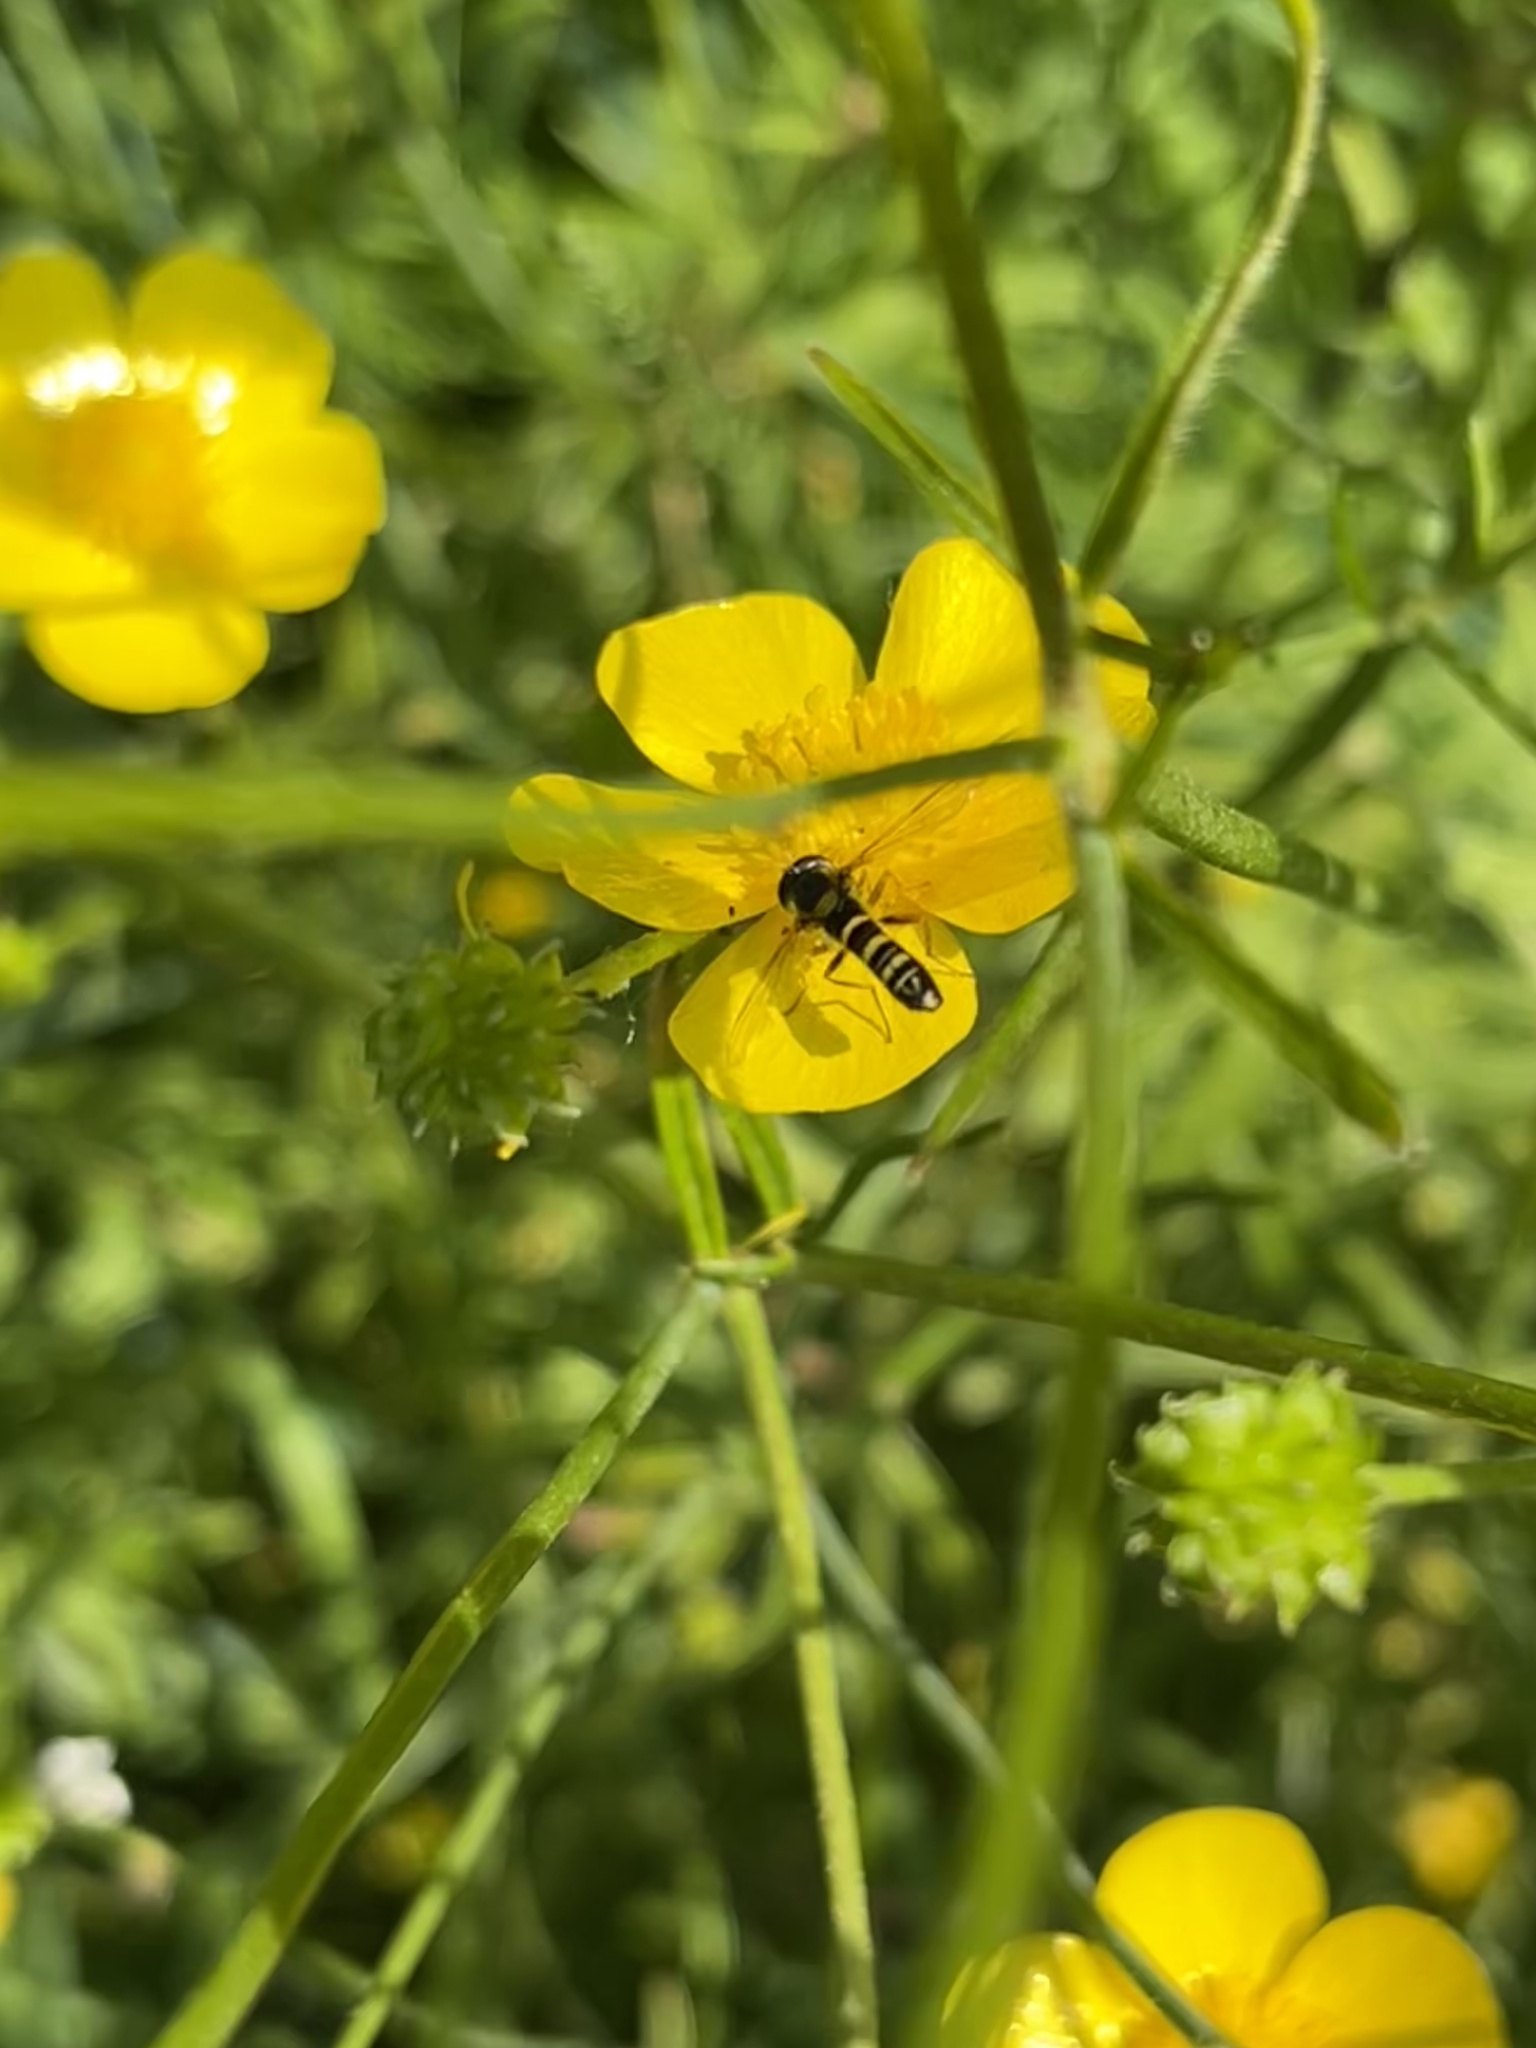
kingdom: Animalia
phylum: Arthropoda
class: Insecta
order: Diptera
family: Syrphidae
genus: Sphaerophoria
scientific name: Sphaerophoria
